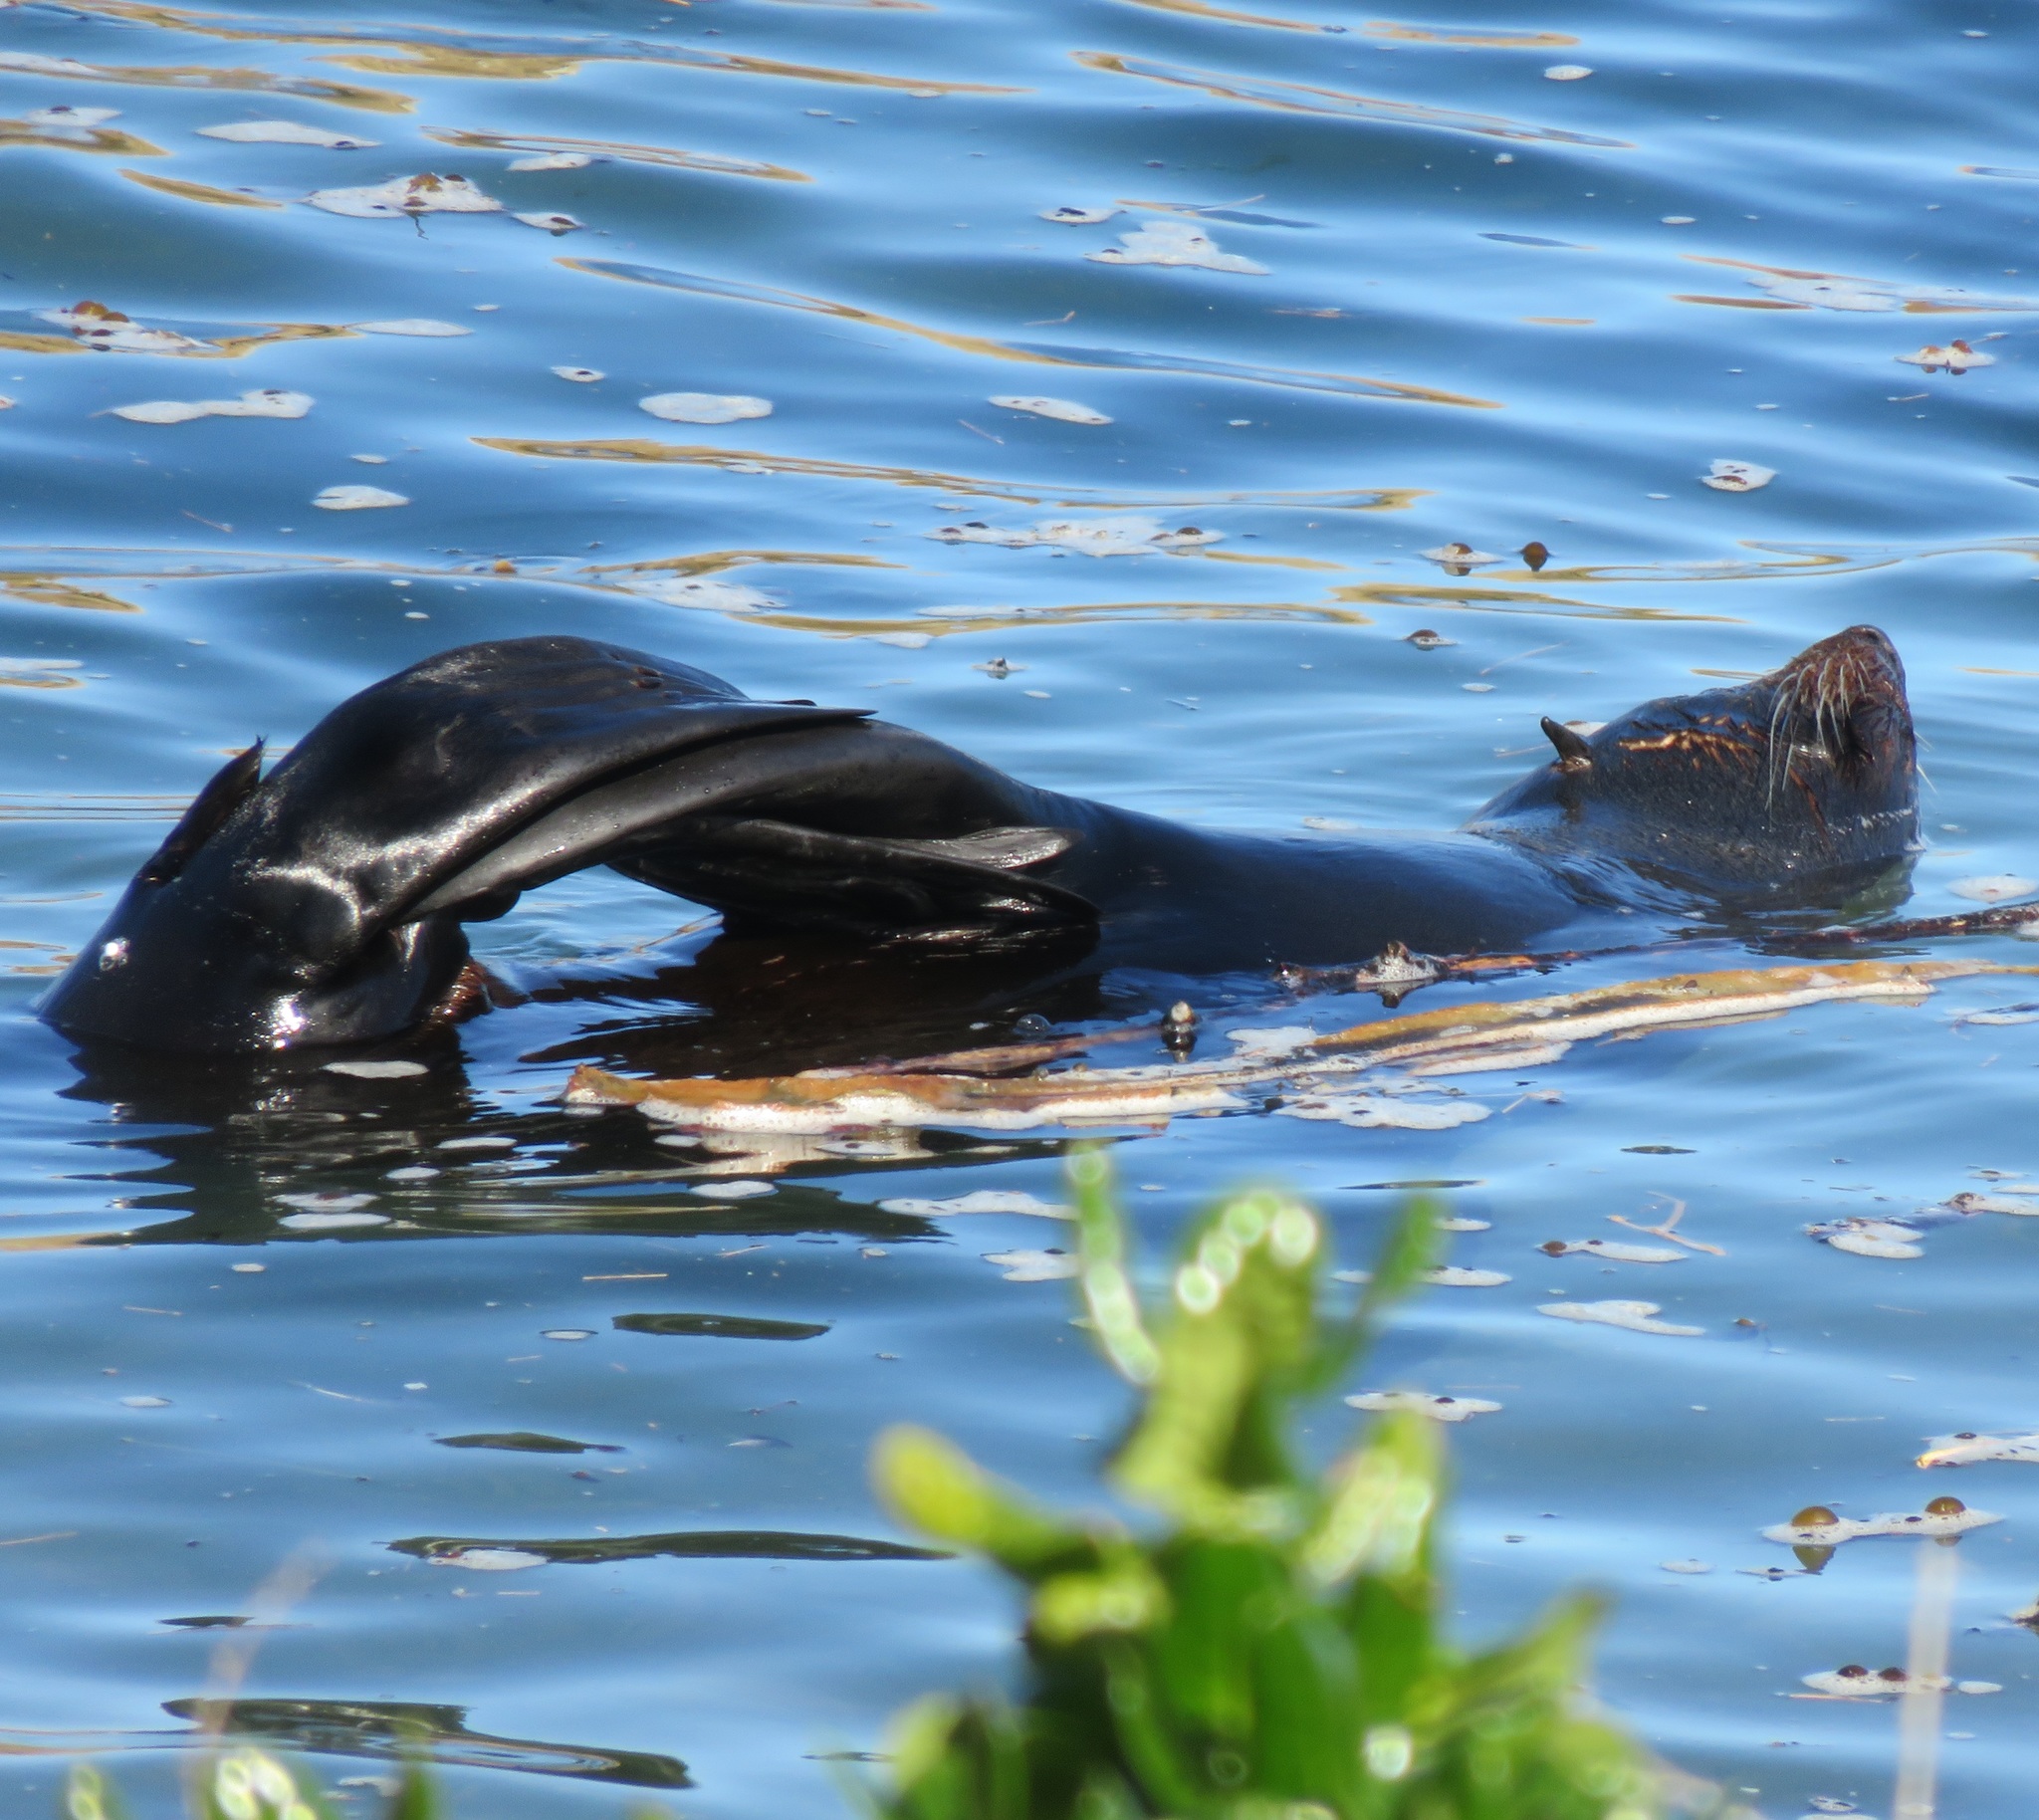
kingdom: Animalia
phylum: Chordata
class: Mammalia
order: Carnivora
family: Otariidae
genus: Arctocephalus
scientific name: Arctocephalus forsteri
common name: New zealand fur seal
